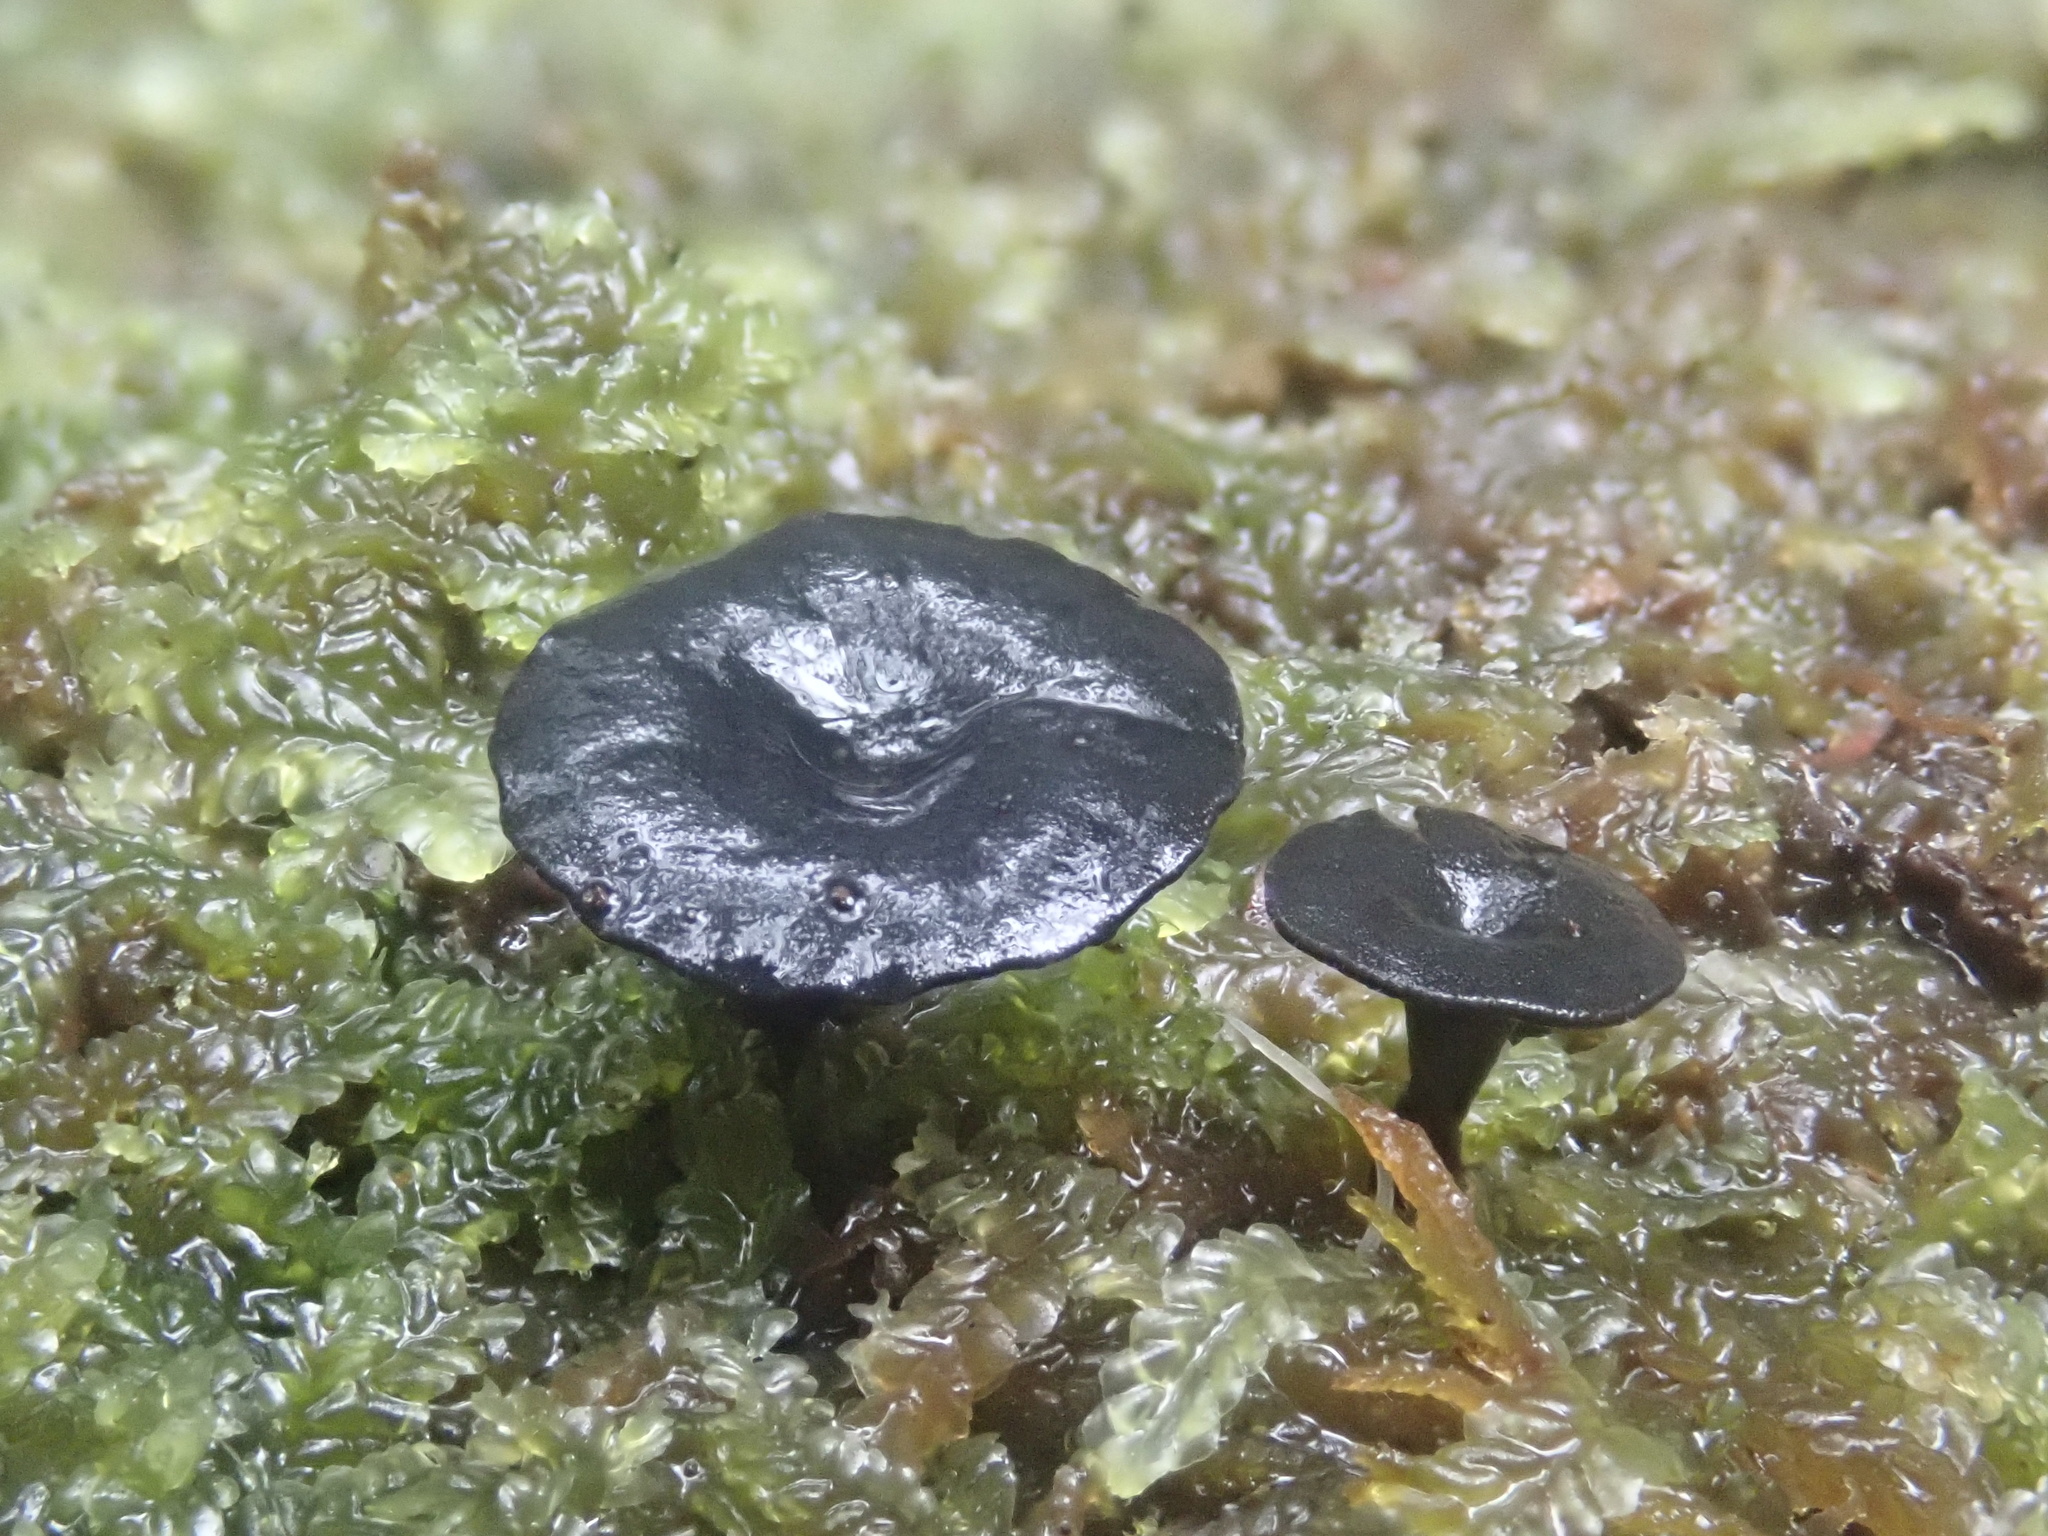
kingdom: Fungi
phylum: Ascomycota
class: Leotiomycetes
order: Helotiales
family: Rutstroemiaceae
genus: Lanzia
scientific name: Lanzia lanaripes
